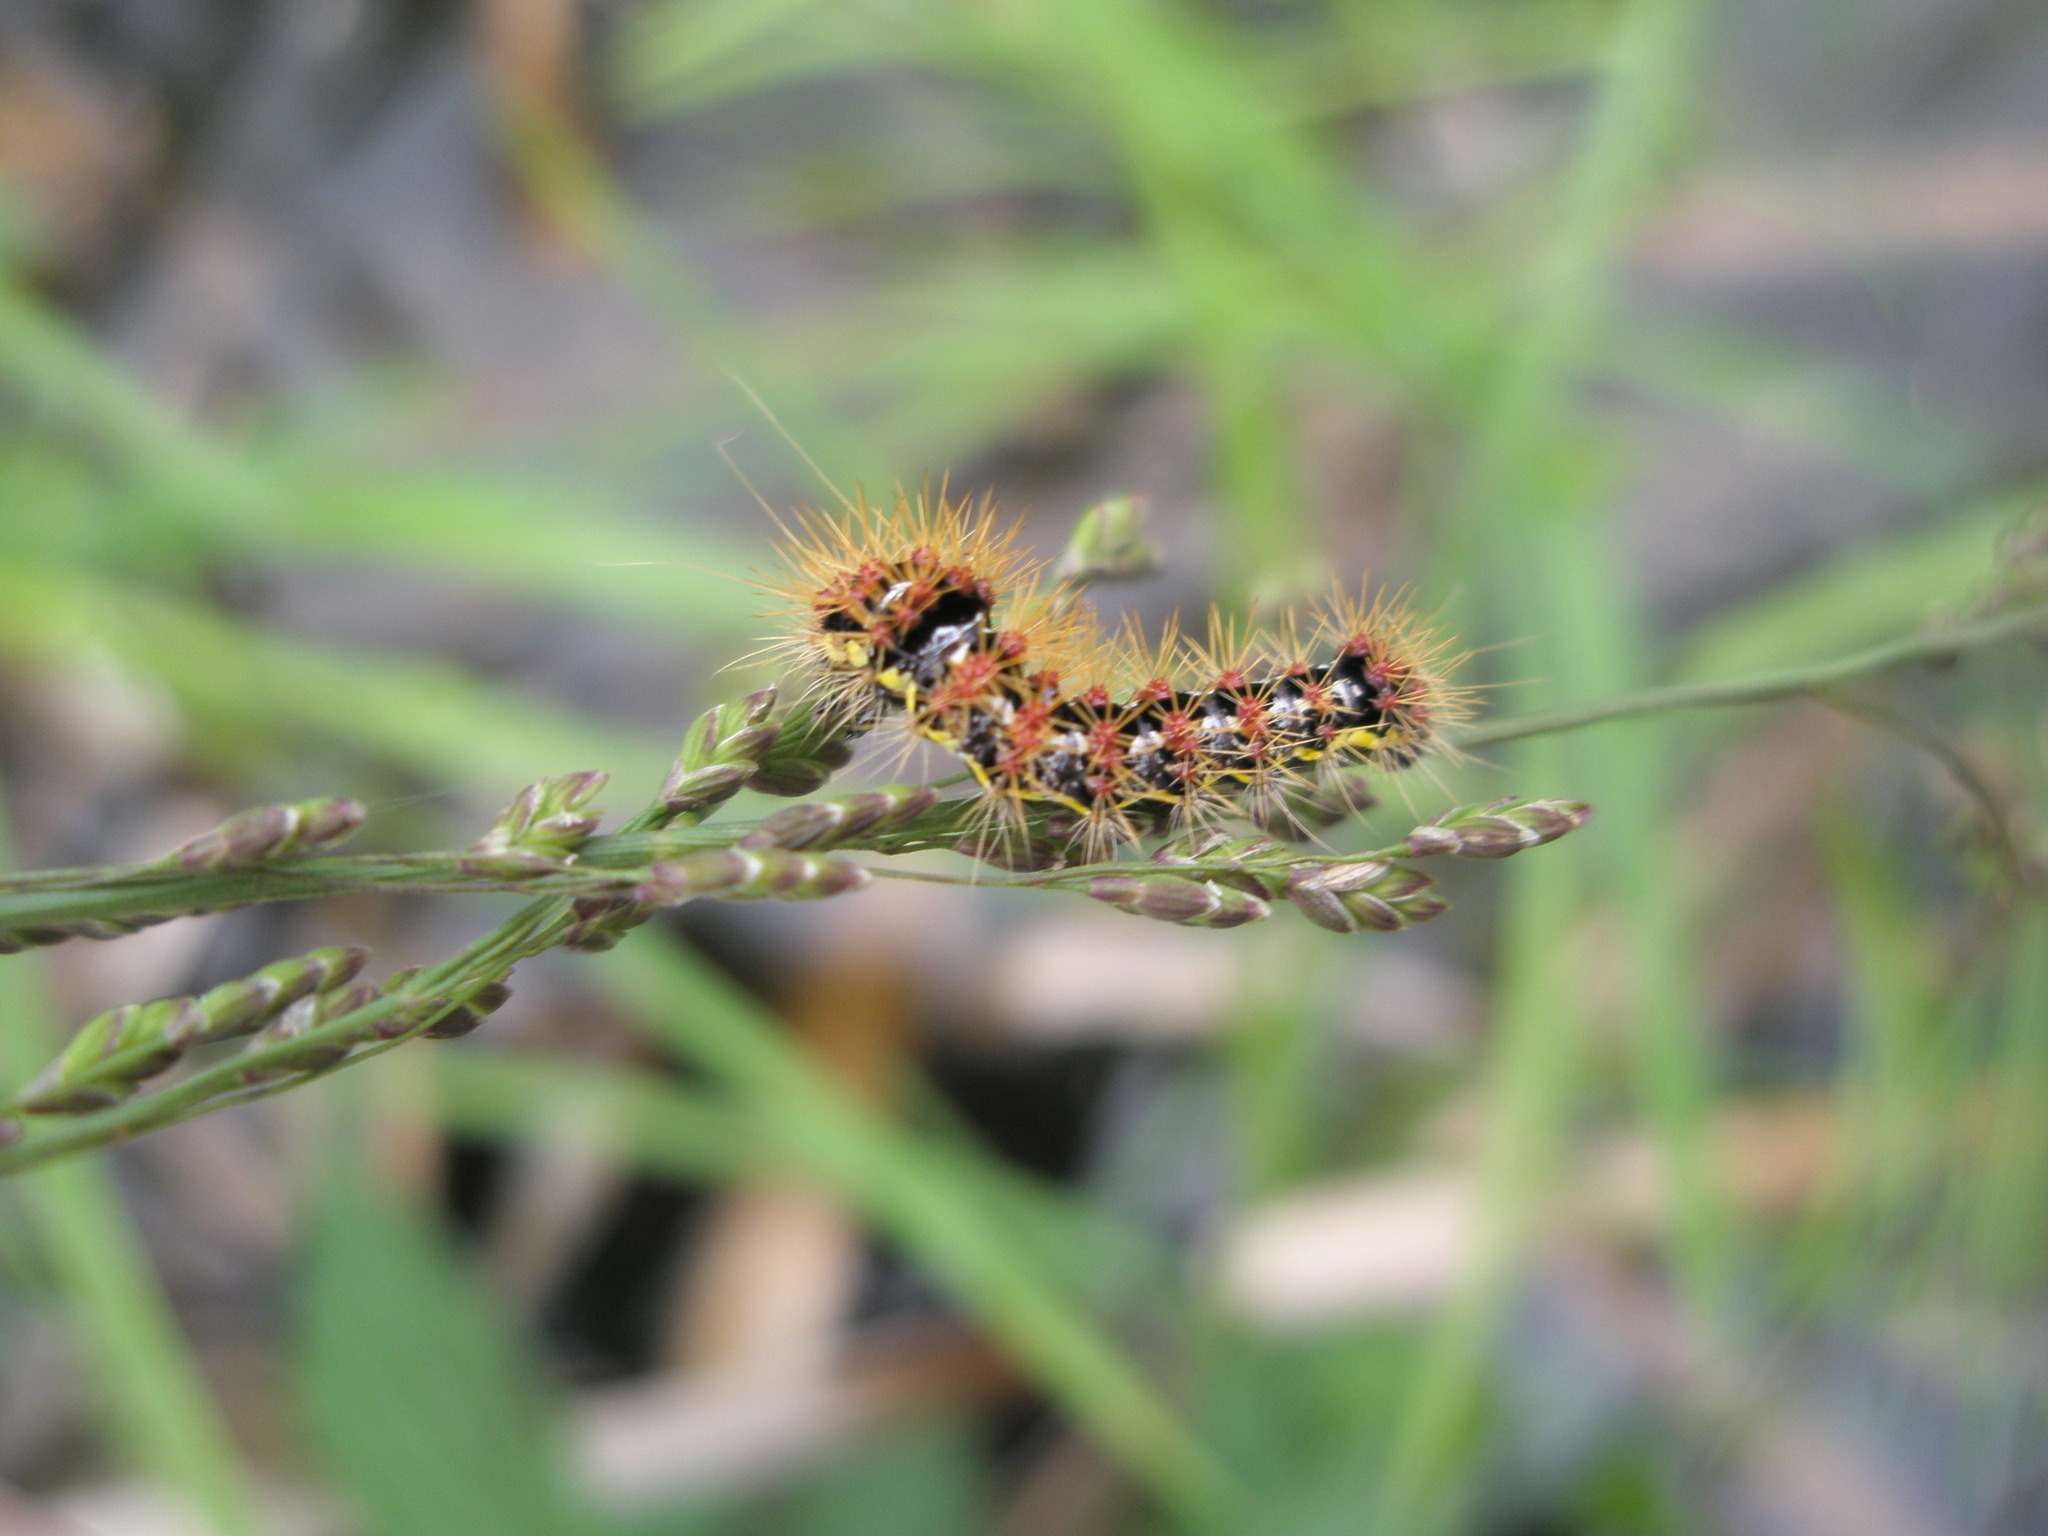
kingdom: Animalia
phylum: Arthropoda
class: Insecta
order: Lepidoptera
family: Noctuidae
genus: Acronicta
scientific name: Acronicta oblinita
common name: Smeared dagger
